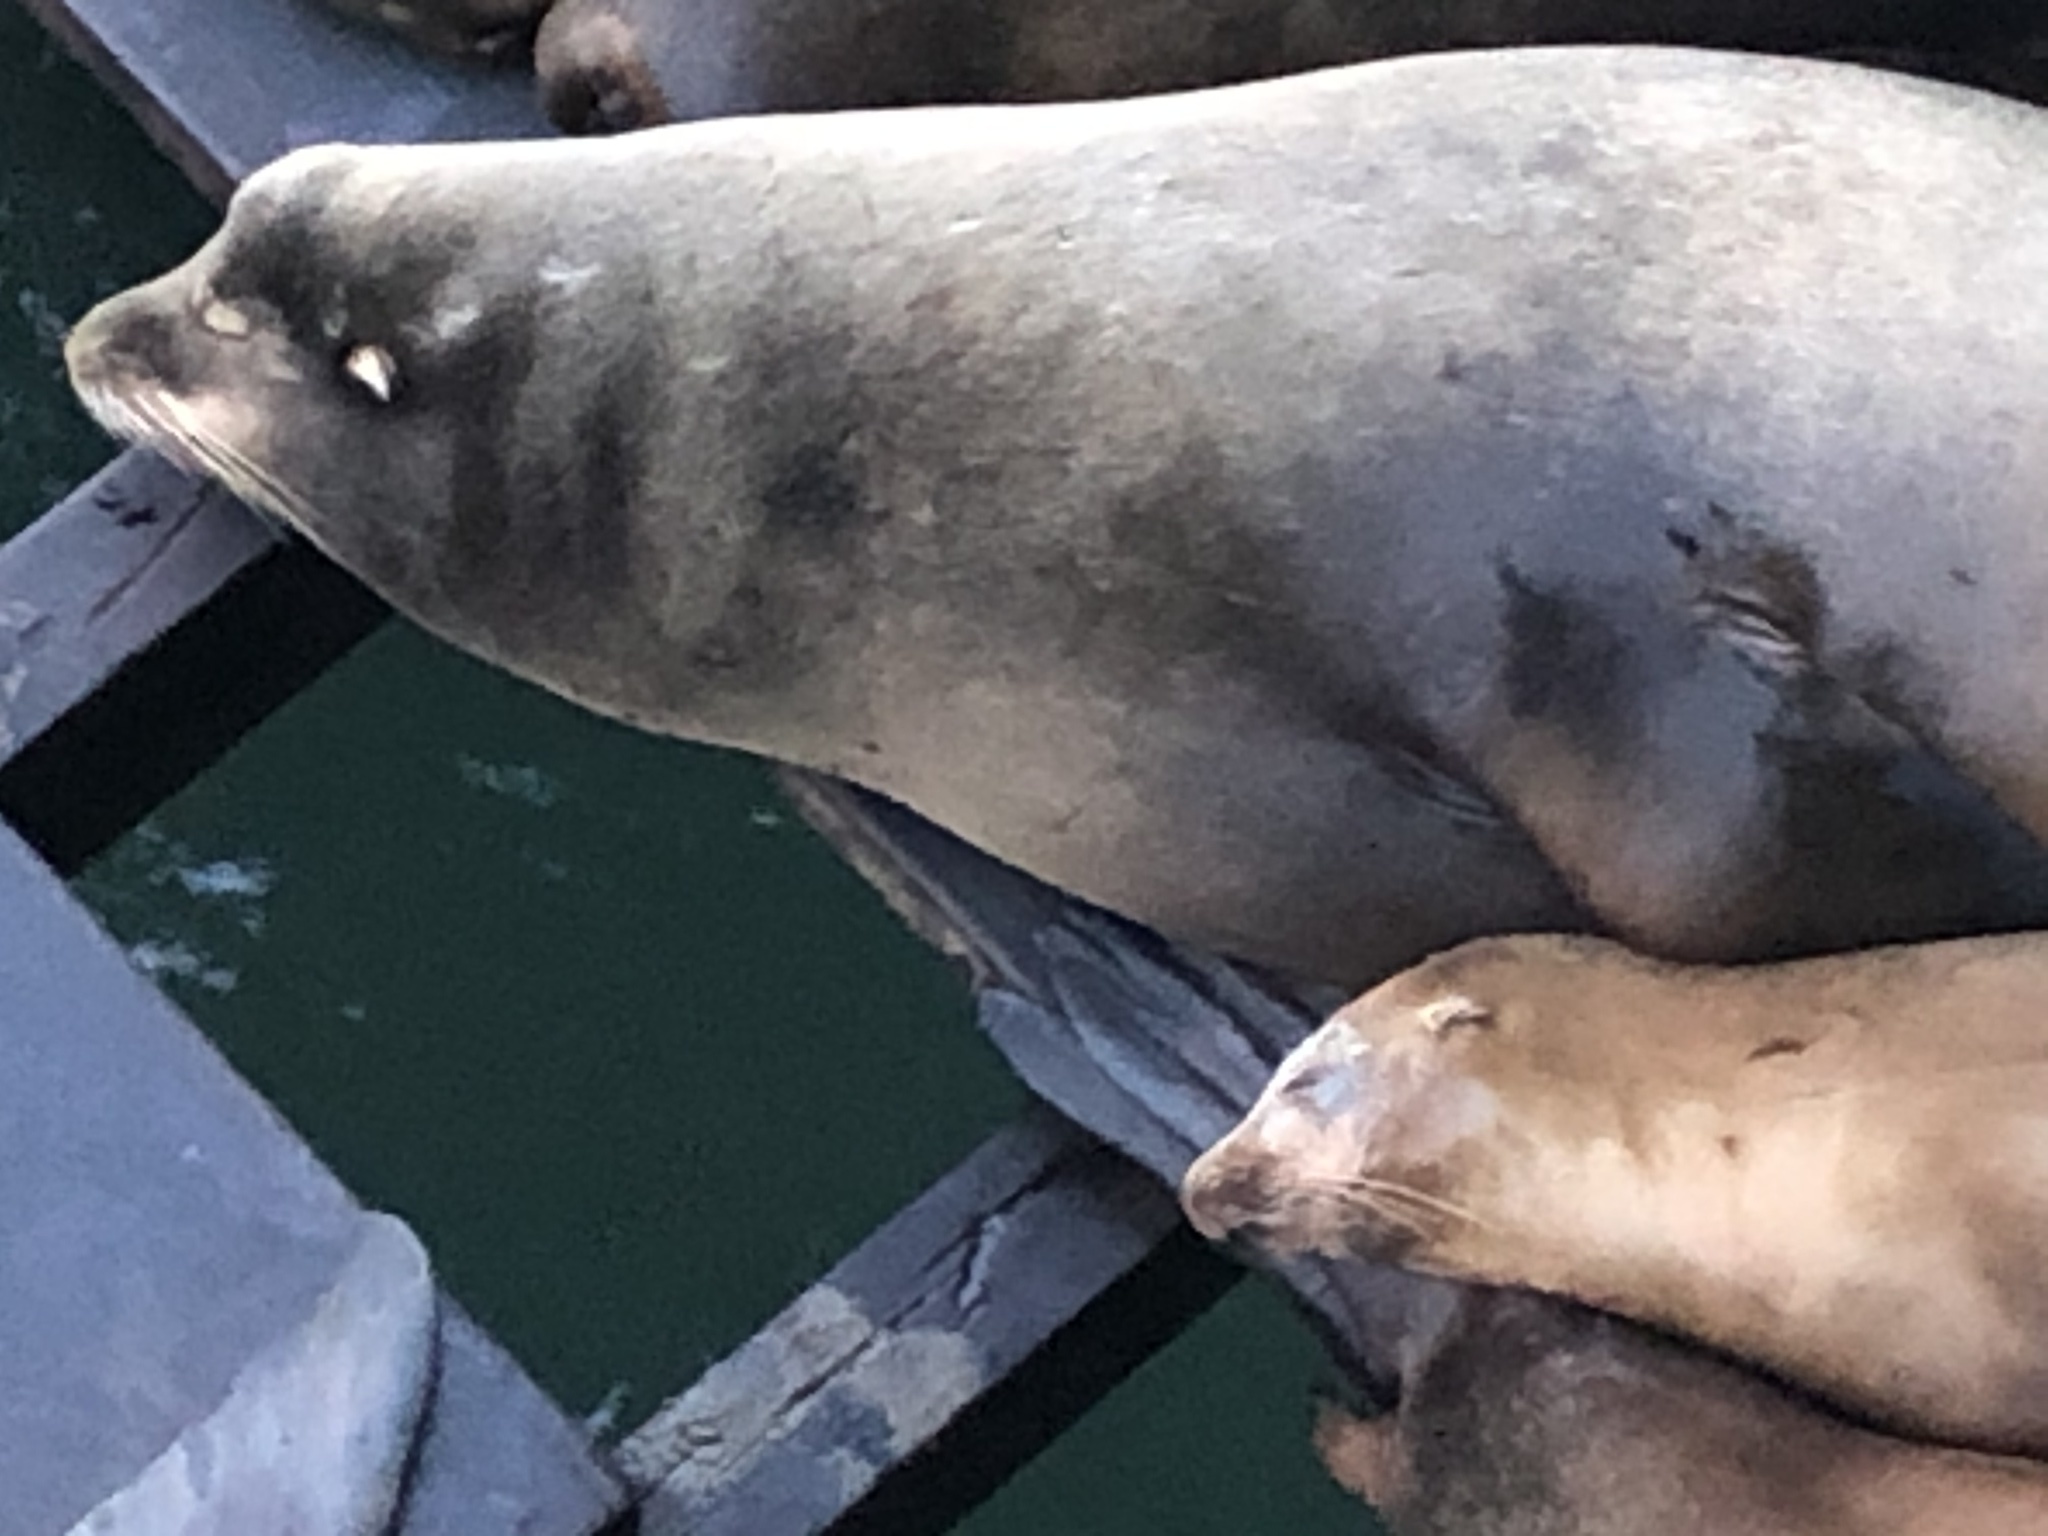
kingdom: Animalia
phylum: Chordata
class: Mammalia
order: Carnivora
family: Otariidae
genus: Zalophus
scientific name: Zalophus californianus
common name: California sea lion
